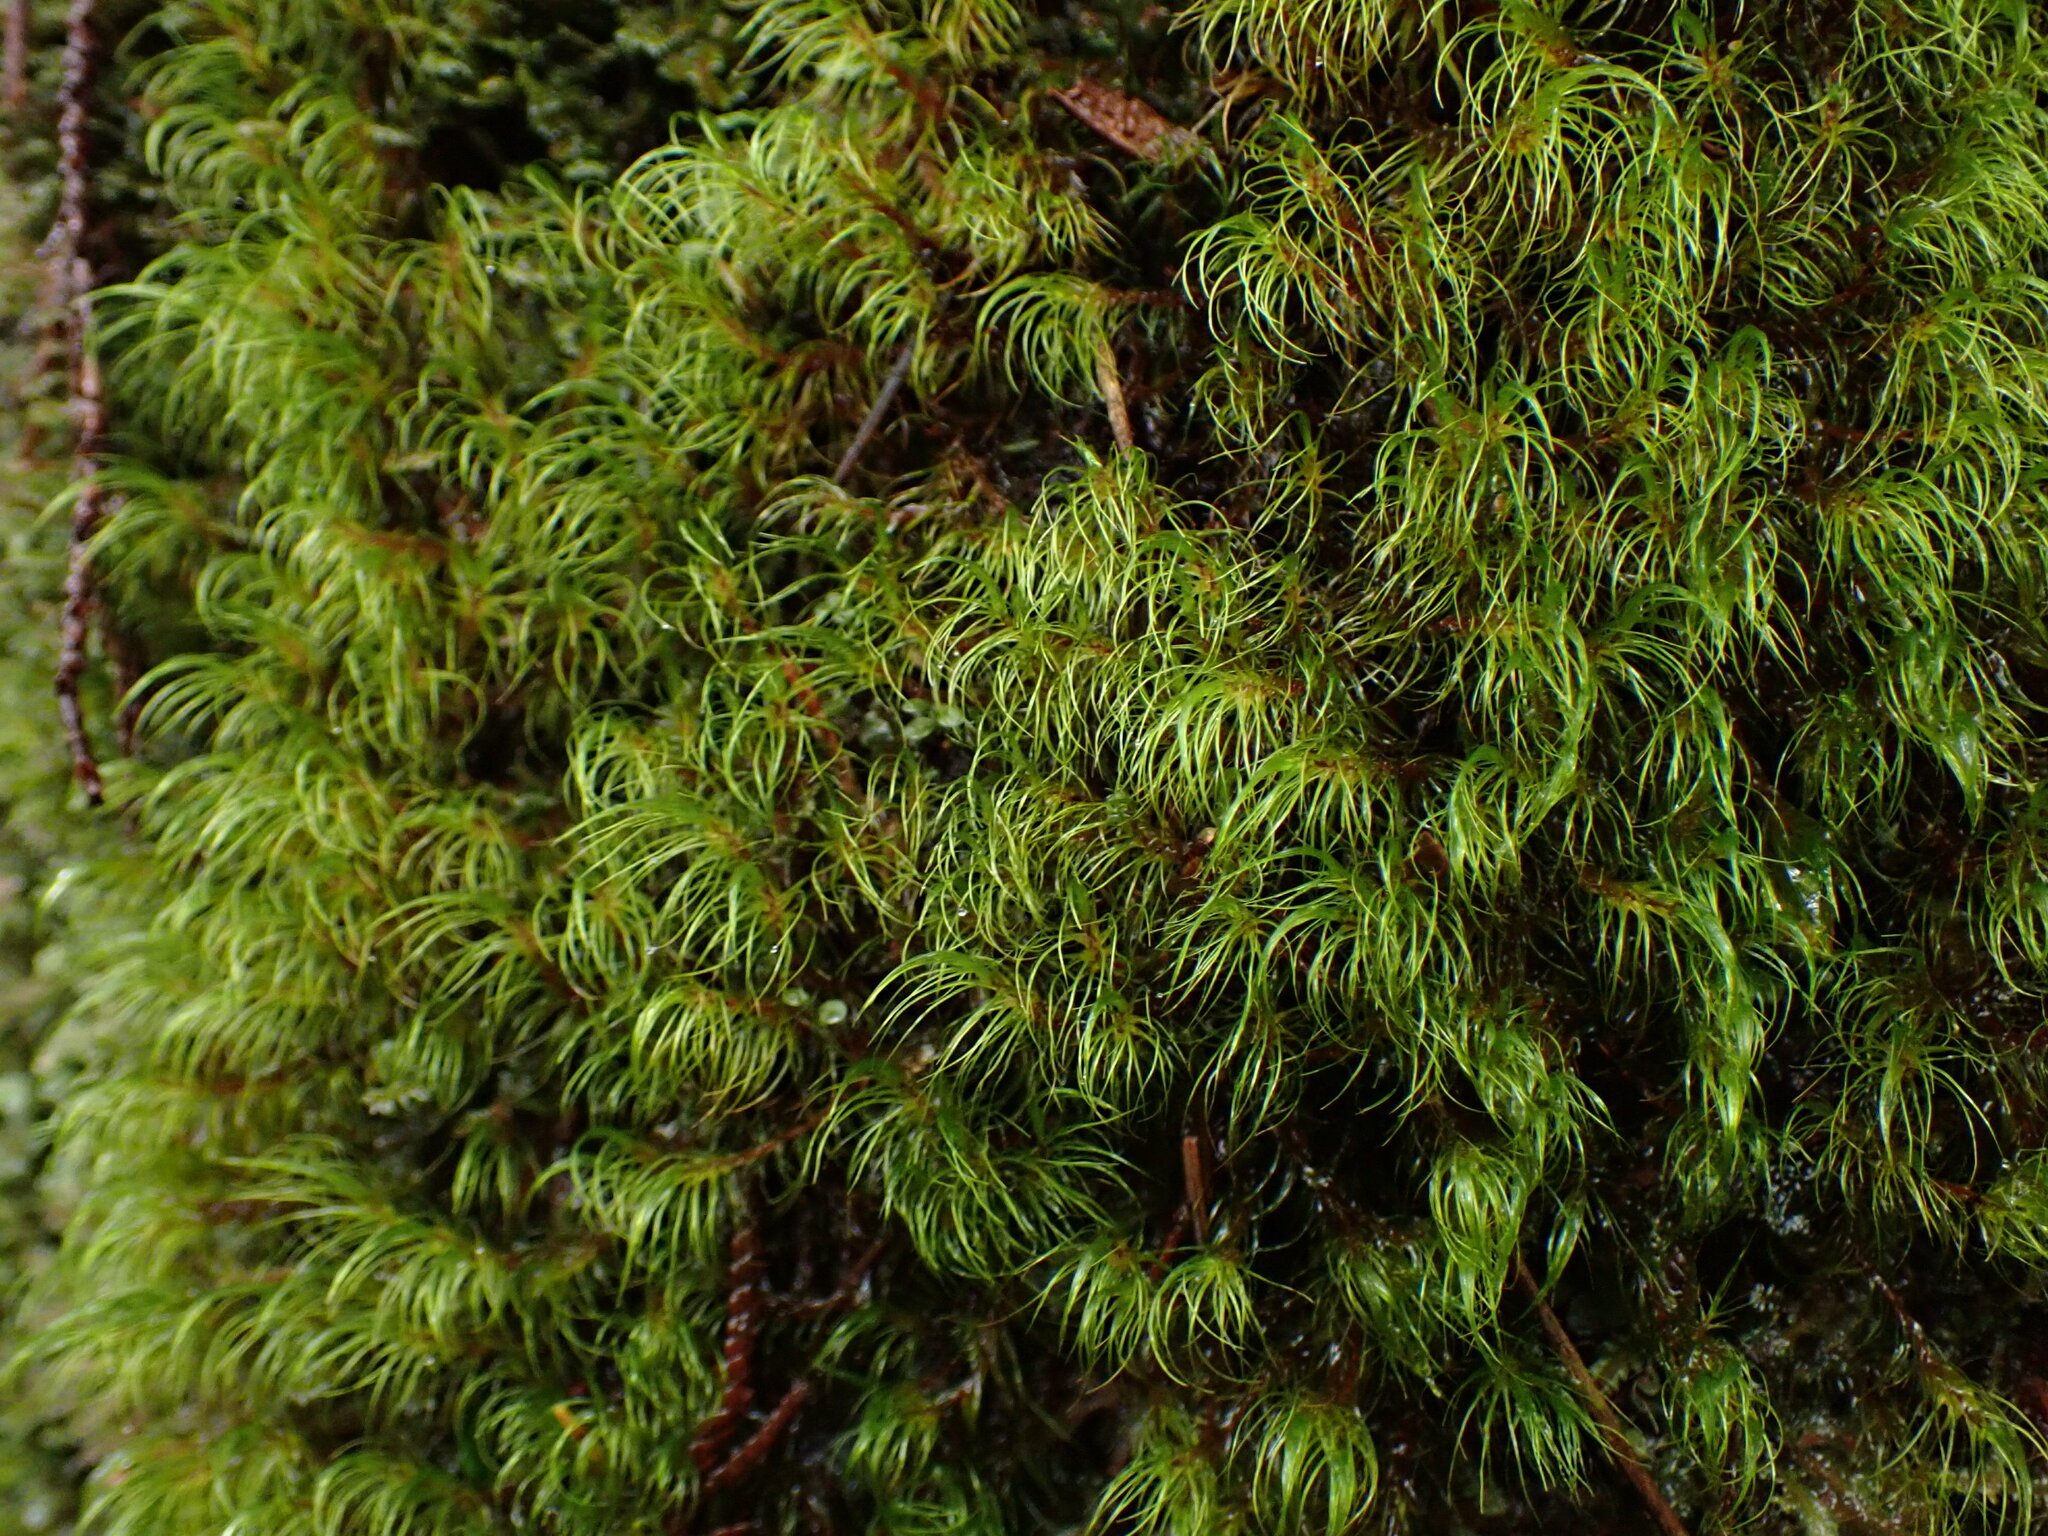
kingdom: Plantae
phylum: Bryophyta
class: Bryopsida
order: Dicranales
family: Leucobryaceae
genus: Dicranodontium
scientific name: Dicranodontium uncinatum
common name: Curve-leaved bow-moss
